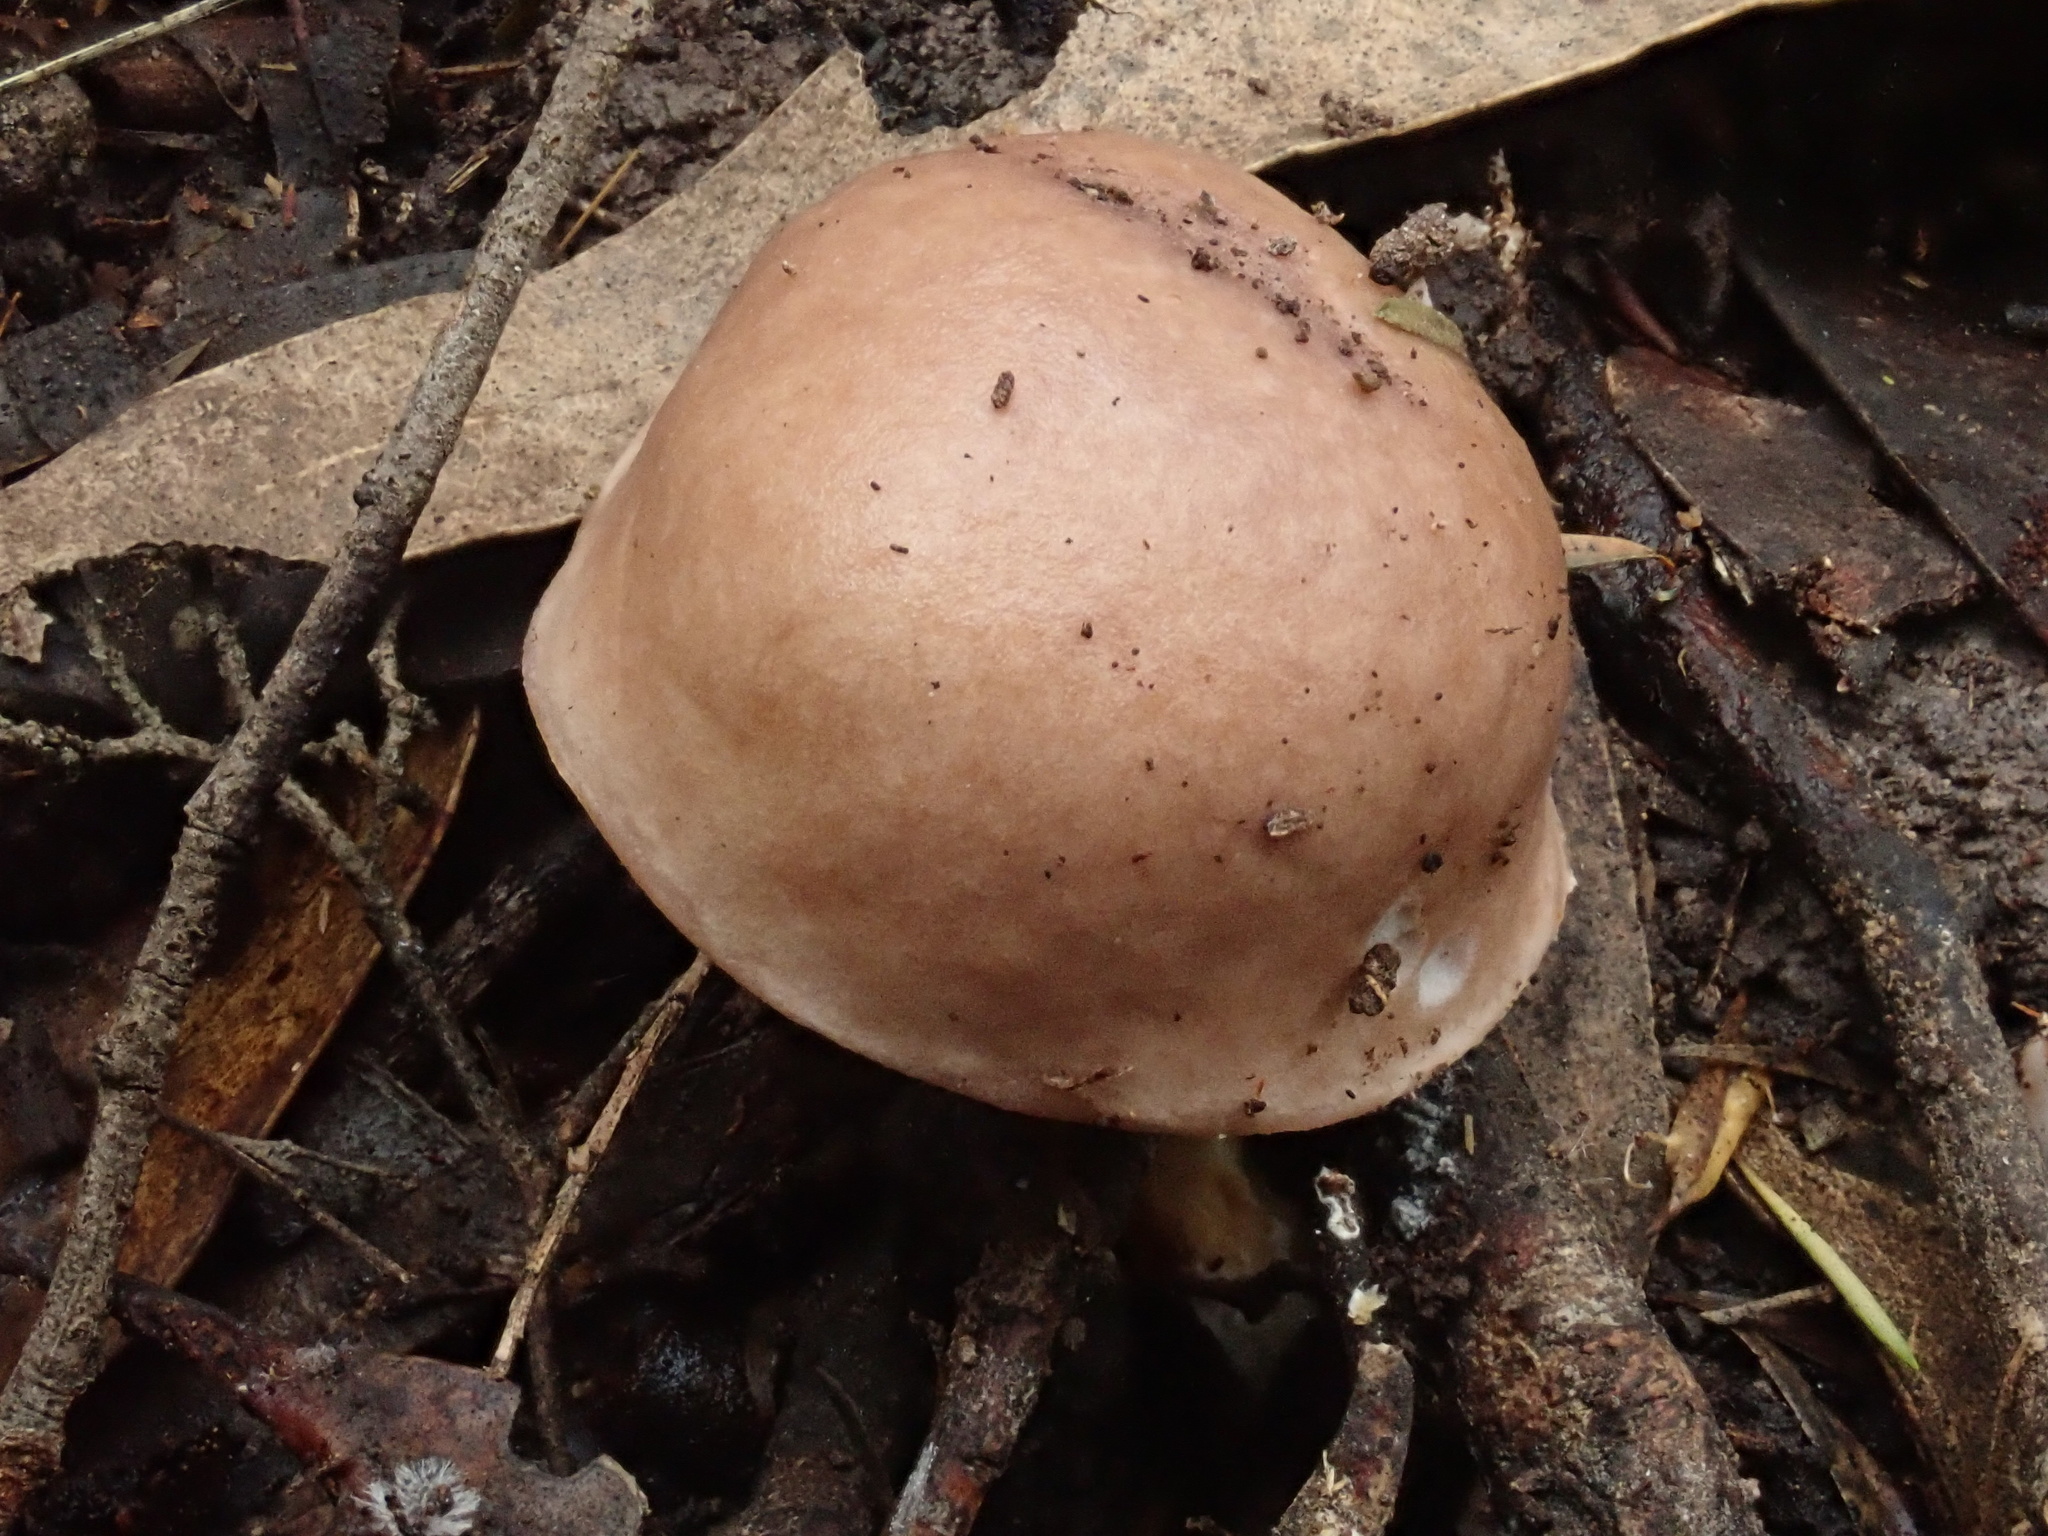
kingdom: Fungi
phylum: Basidiomycota
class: Agaricomycetes
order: Boletales
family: Boletaceae
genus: Fistulinella
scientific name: Fistulinella mollis
